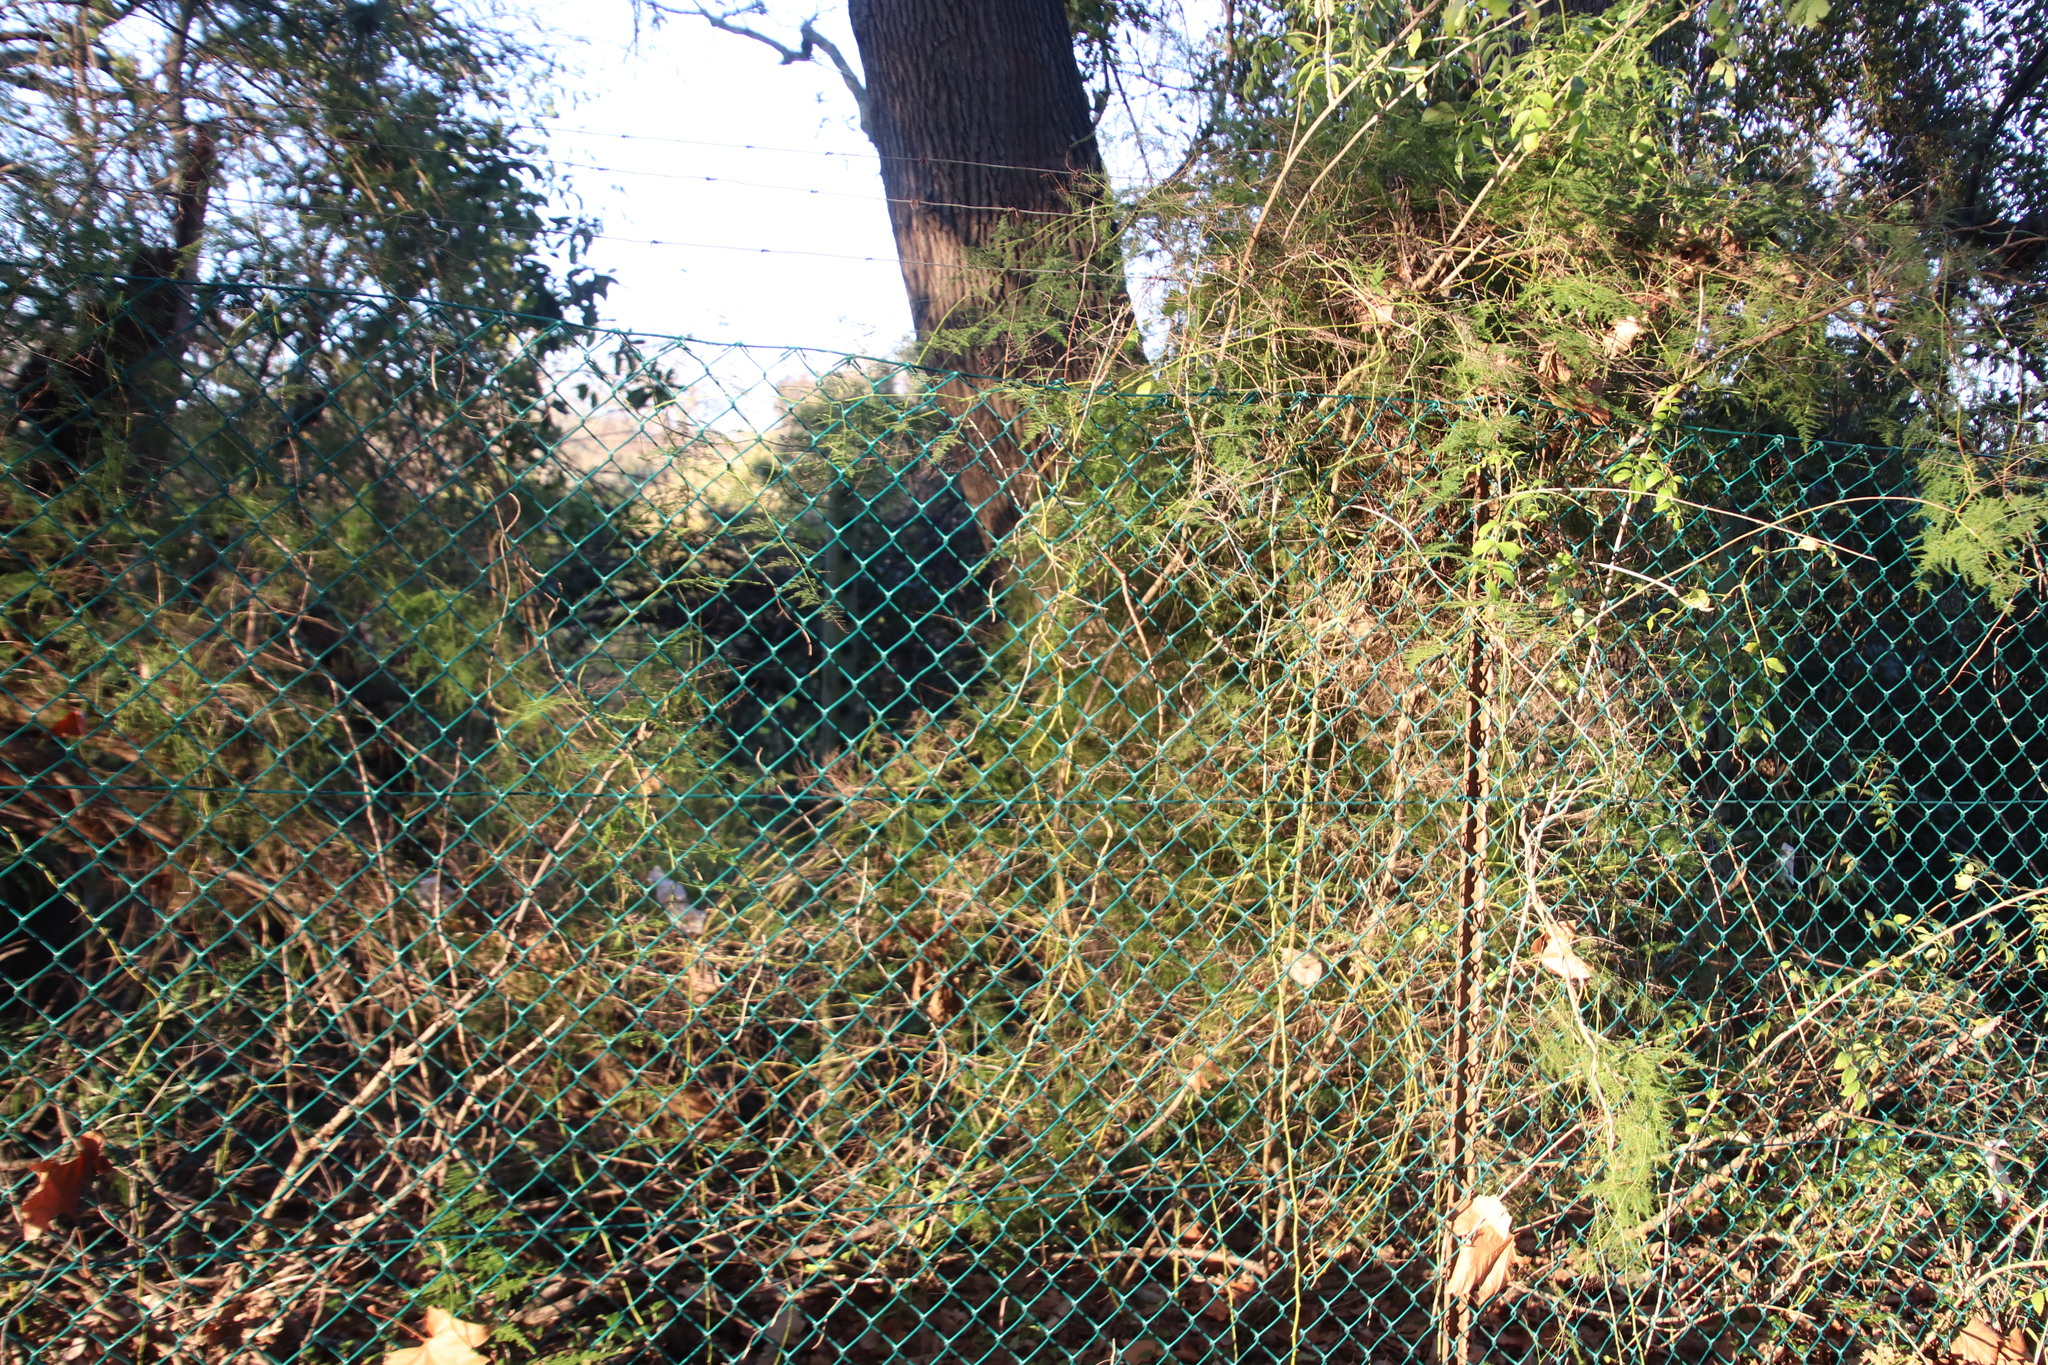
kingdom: Plantae
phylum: Tracheophyta
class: Magnoliopsida
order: Lamiales
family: Bignoniaceae
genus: Podranea
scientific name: Podranea ricasoliana
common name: Zimbabwe creeper
